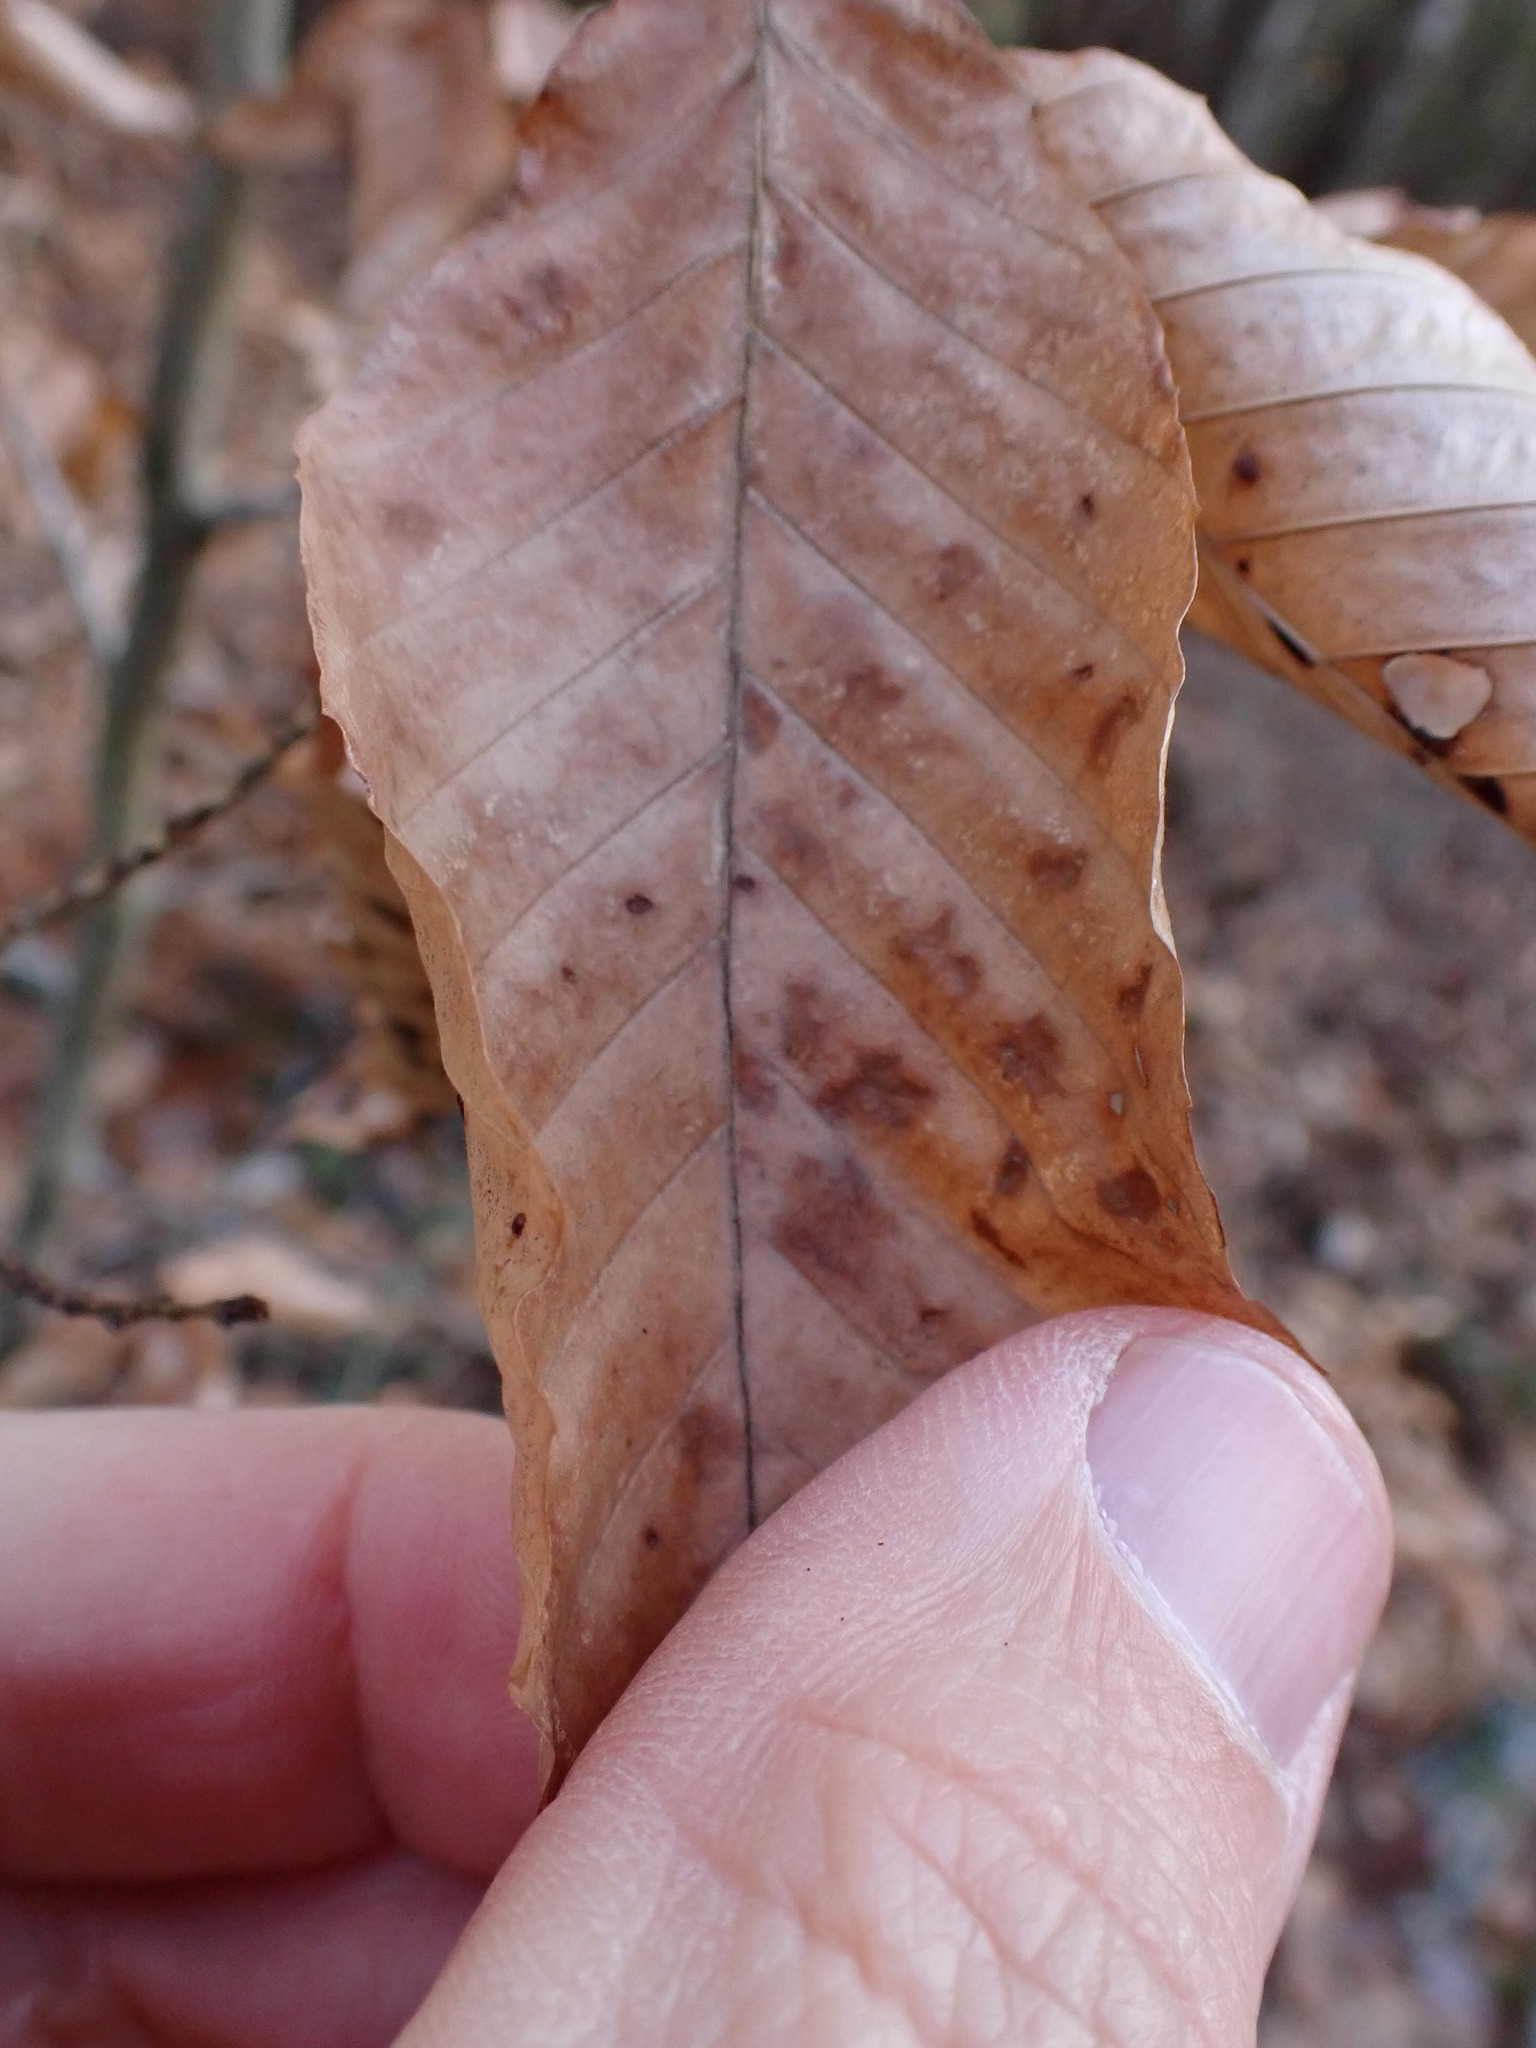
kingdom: Animalia
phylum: Arthropoda
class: Arachnida
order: Trombidiformes
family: Eriophyidae
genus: Acalitus
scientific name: Acalitus
